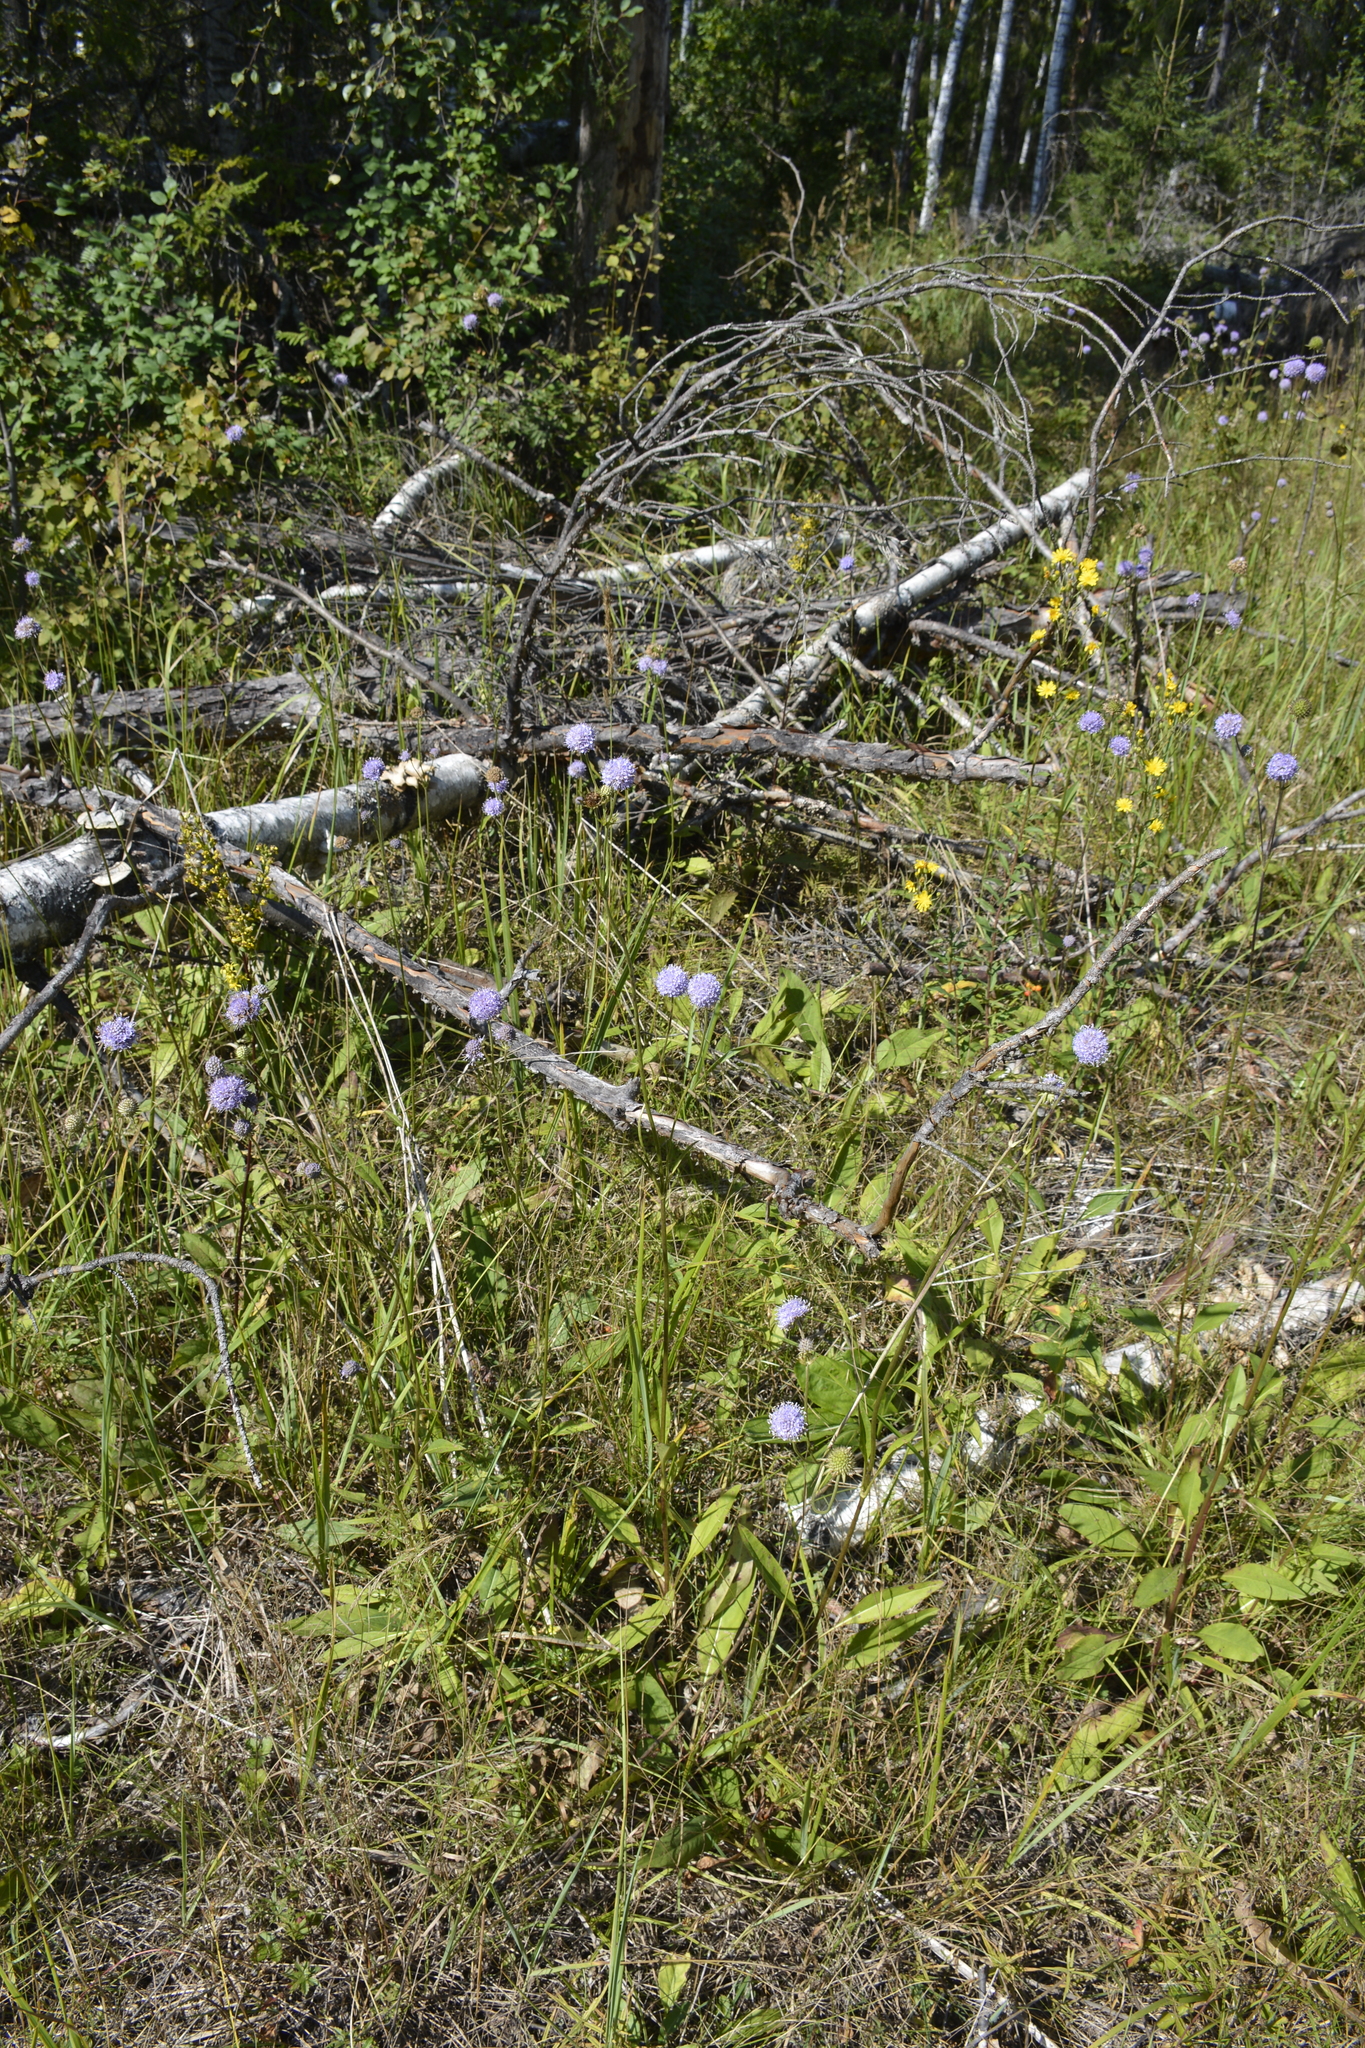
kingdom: Plantae
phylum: Tracheophyta
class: Magnoliopsida
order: Dipsacales
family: Caprifoliaceae
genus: Succisa
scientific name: Succisa pratensis
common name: Devil's-bit
